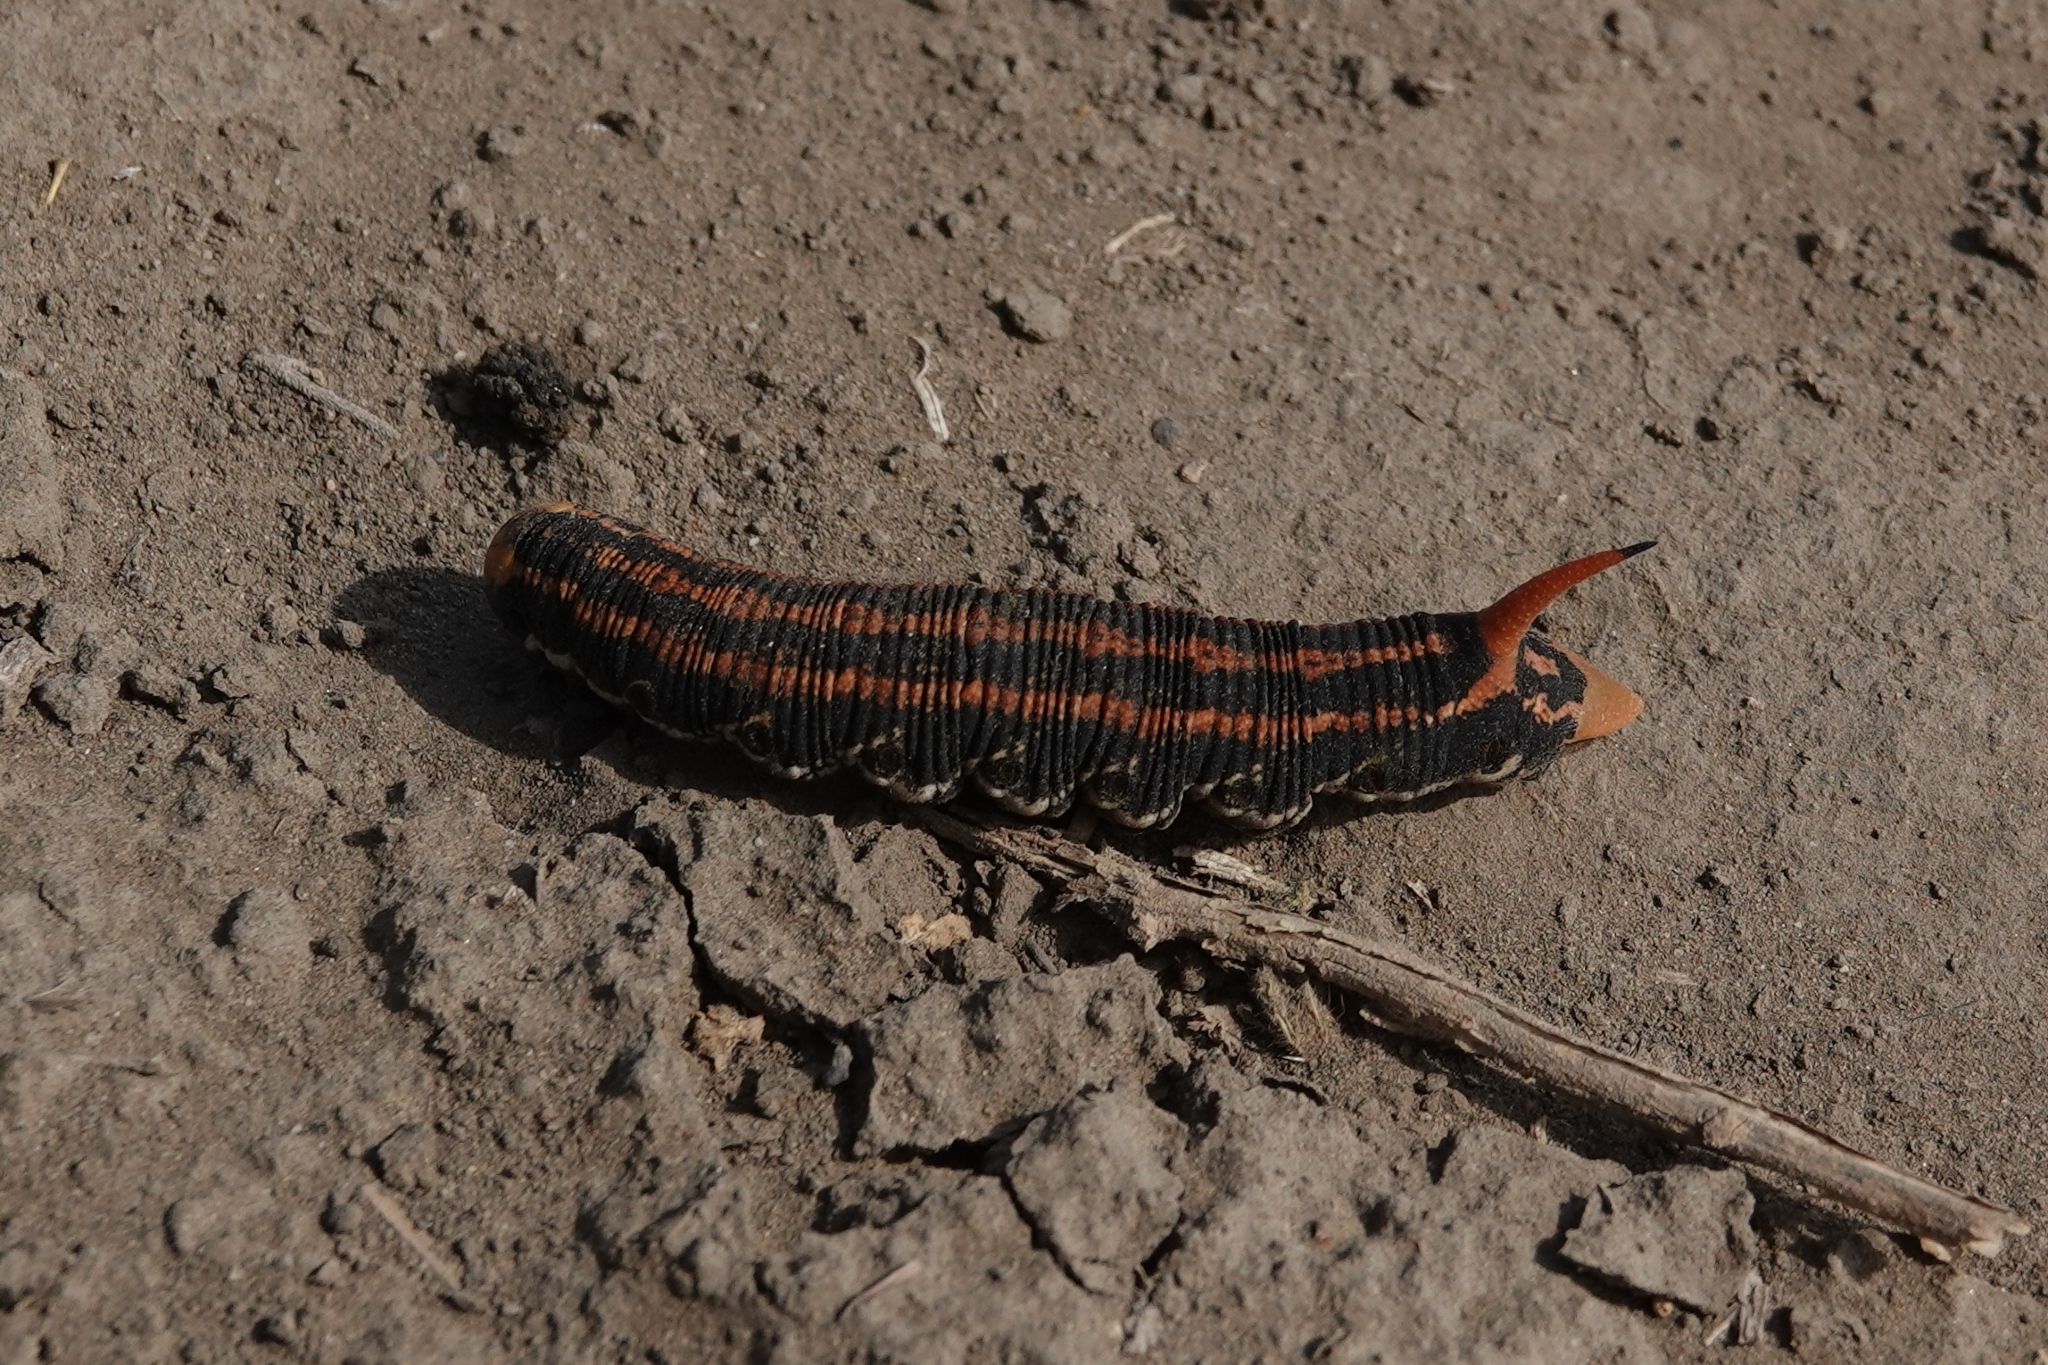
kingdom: Animalia
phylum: Arthropoda
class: Insecta
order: Lepidoptera
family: Sphingidae
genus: Agrius
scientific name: Agrius convolvuli
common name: Convolvulus hawkmoth
